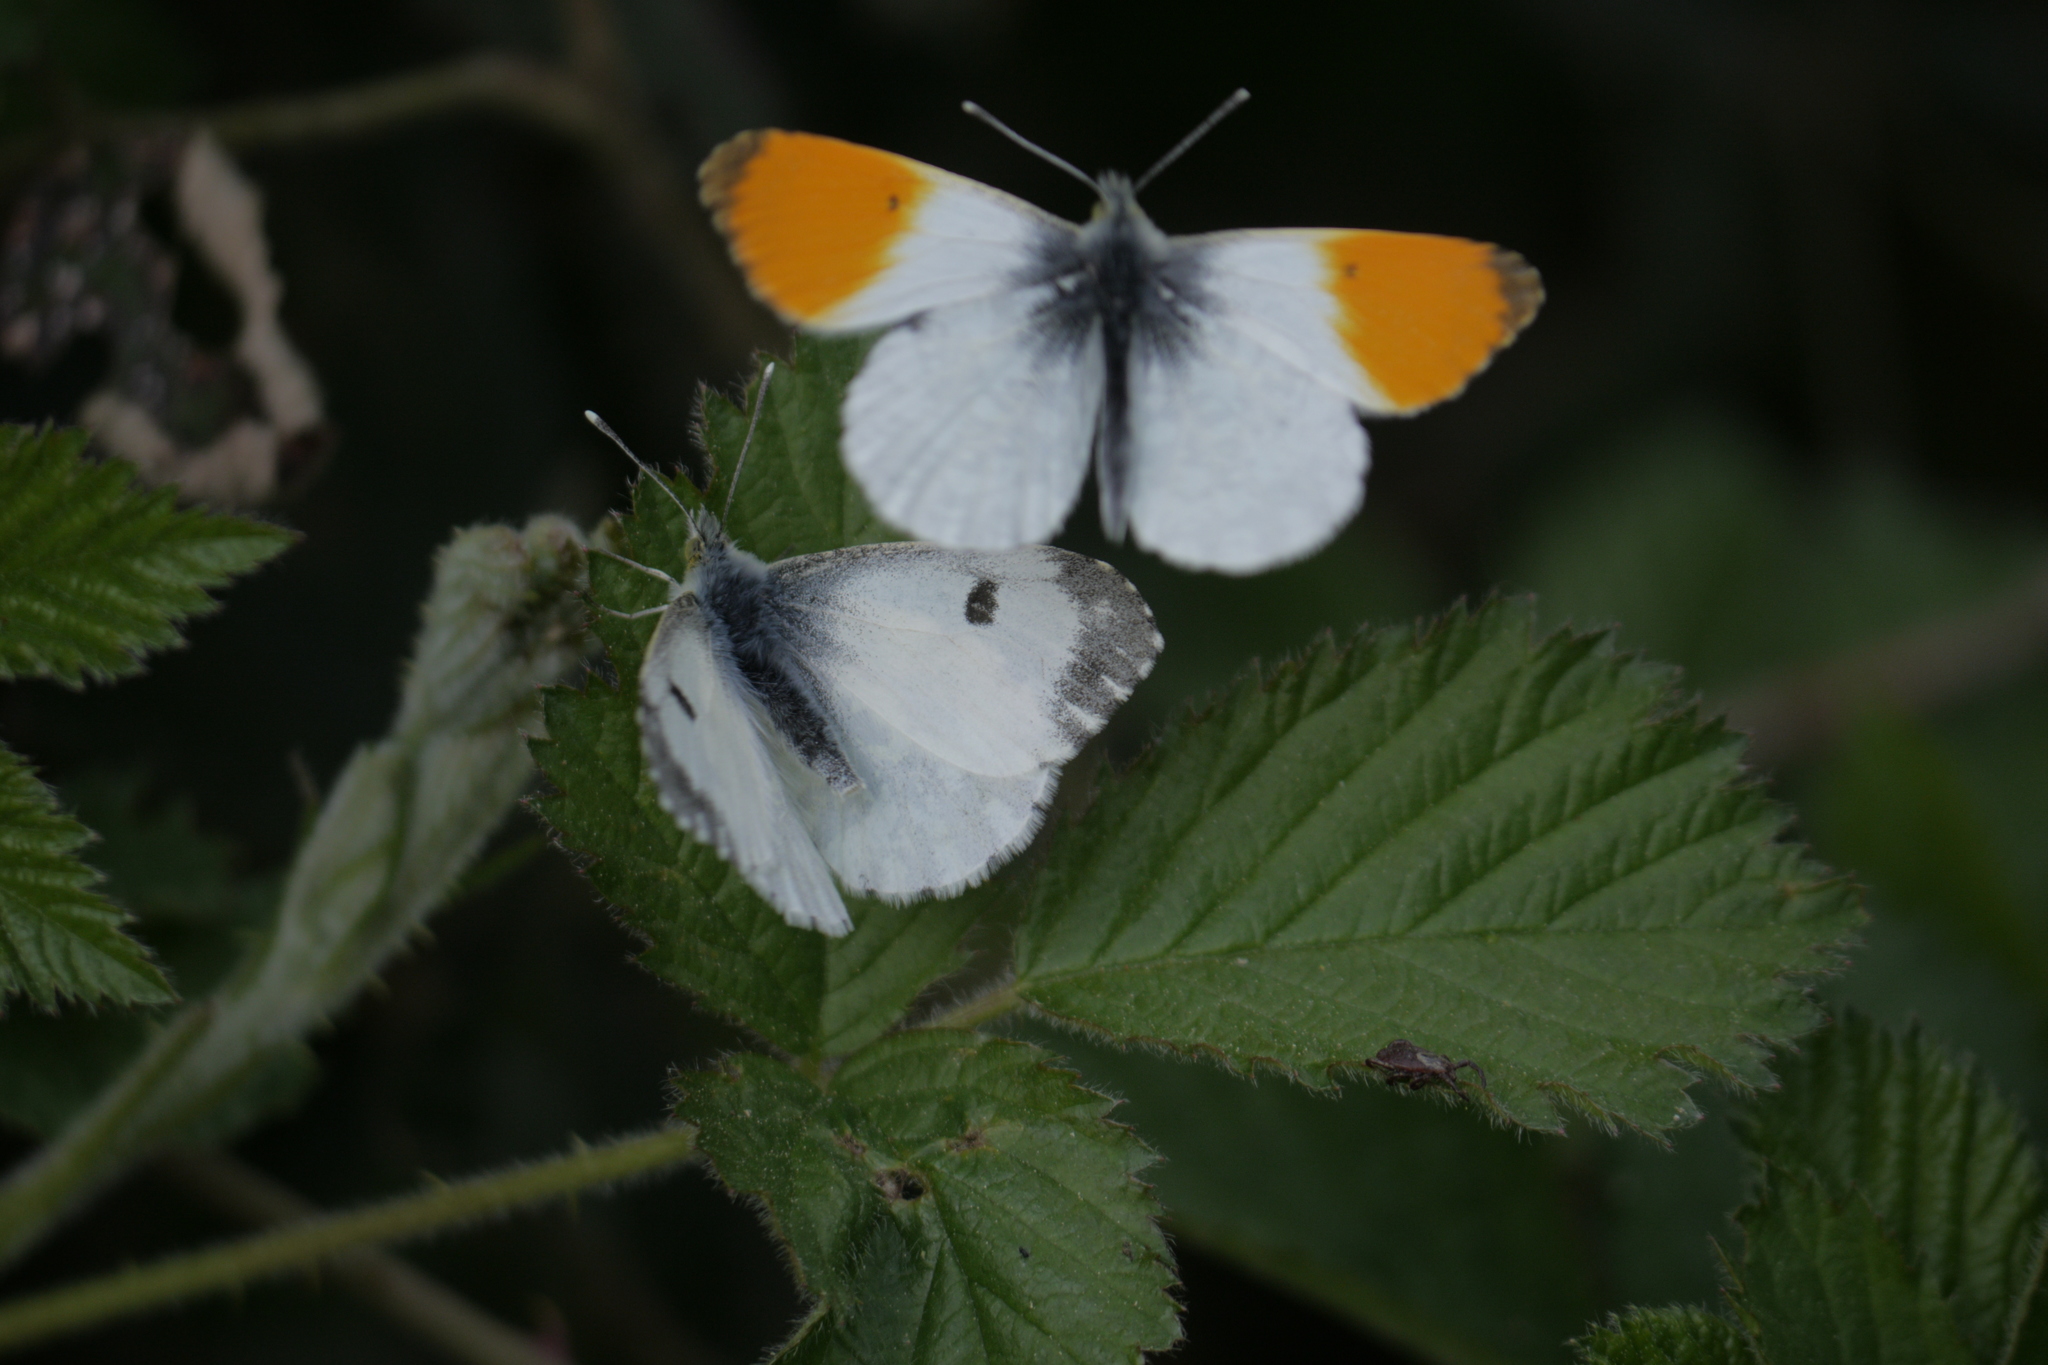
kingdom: Animalia
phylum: Arthropoda
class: Insecta
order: Lepidoptera
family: Pieridae
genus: Anthocharis
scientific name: Anthocharis cardamines
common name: Orange-tip
